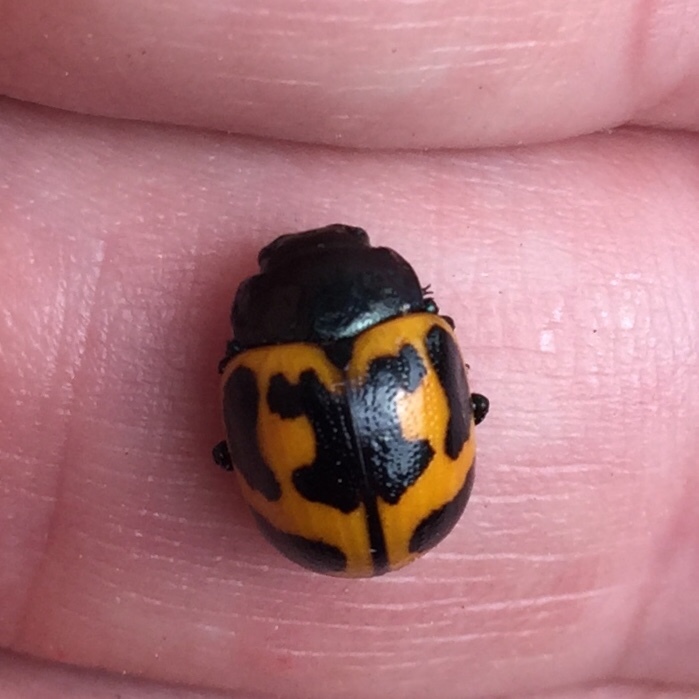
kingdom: Animalia
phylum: Arthropoda
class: Insecta
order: Coleoptera
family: Chrysomelidae
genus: Labidomera
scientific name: Labidomera clivicollis
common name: Swamp milkweed leaf beetle
